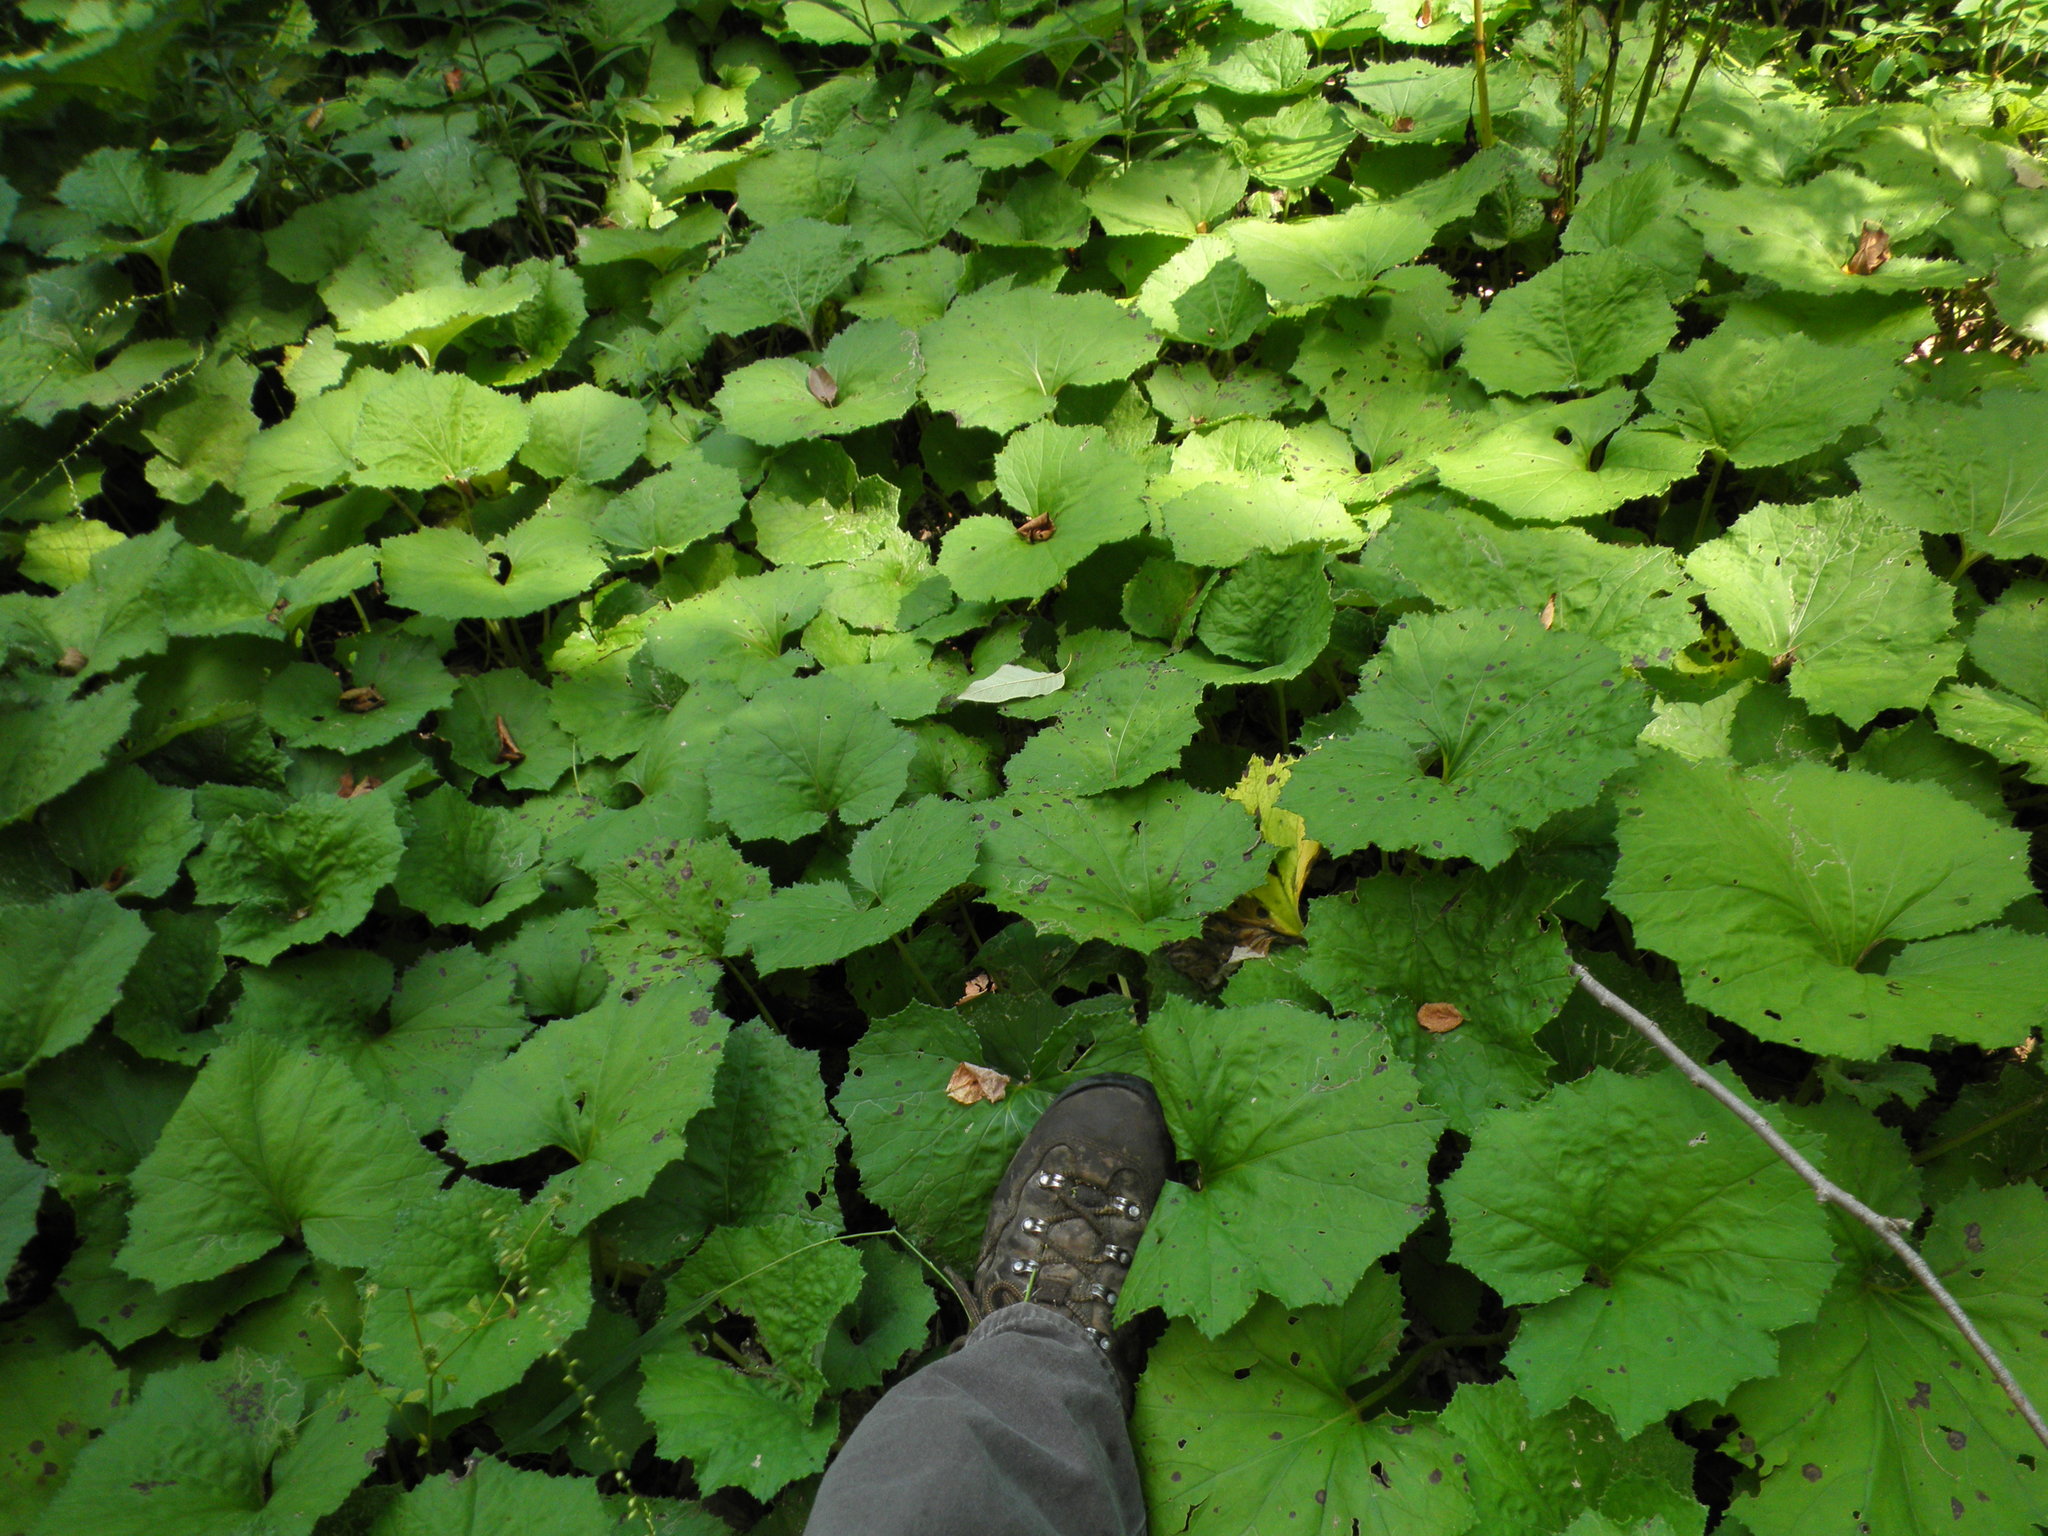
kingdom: Plantae
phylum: Tracheophyta
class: Magnoliopsida
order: Asterales
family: Asteraceae
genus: Tussilago
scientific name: Tussilago farfara
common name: Coltsfoot
